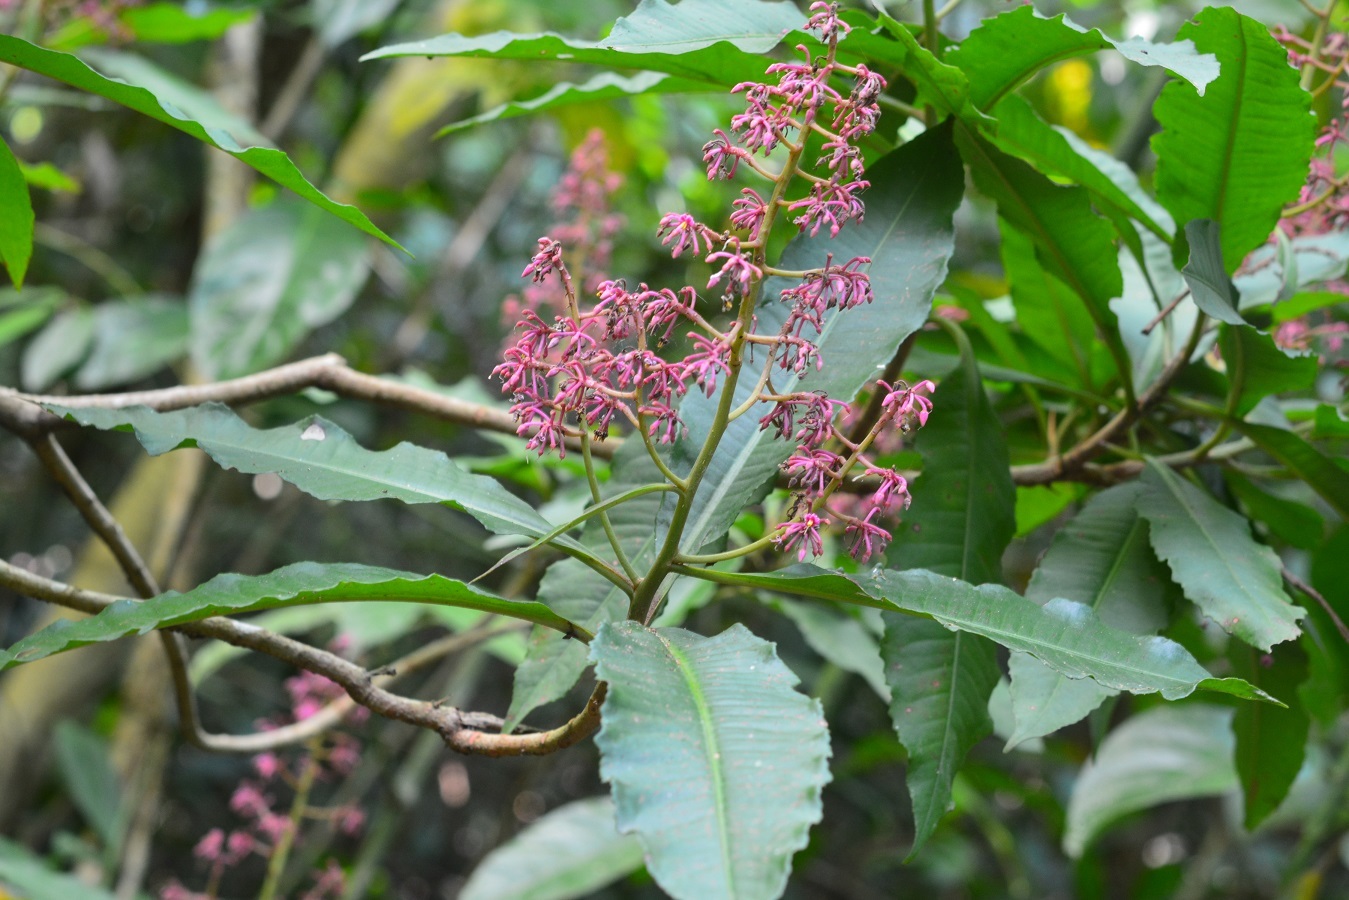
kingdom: Plantae
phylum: Tracheophyta
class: Magnoliopsida
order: Ericales
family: Primulaceae
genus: Parathesis
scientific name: Parathesis rufa
